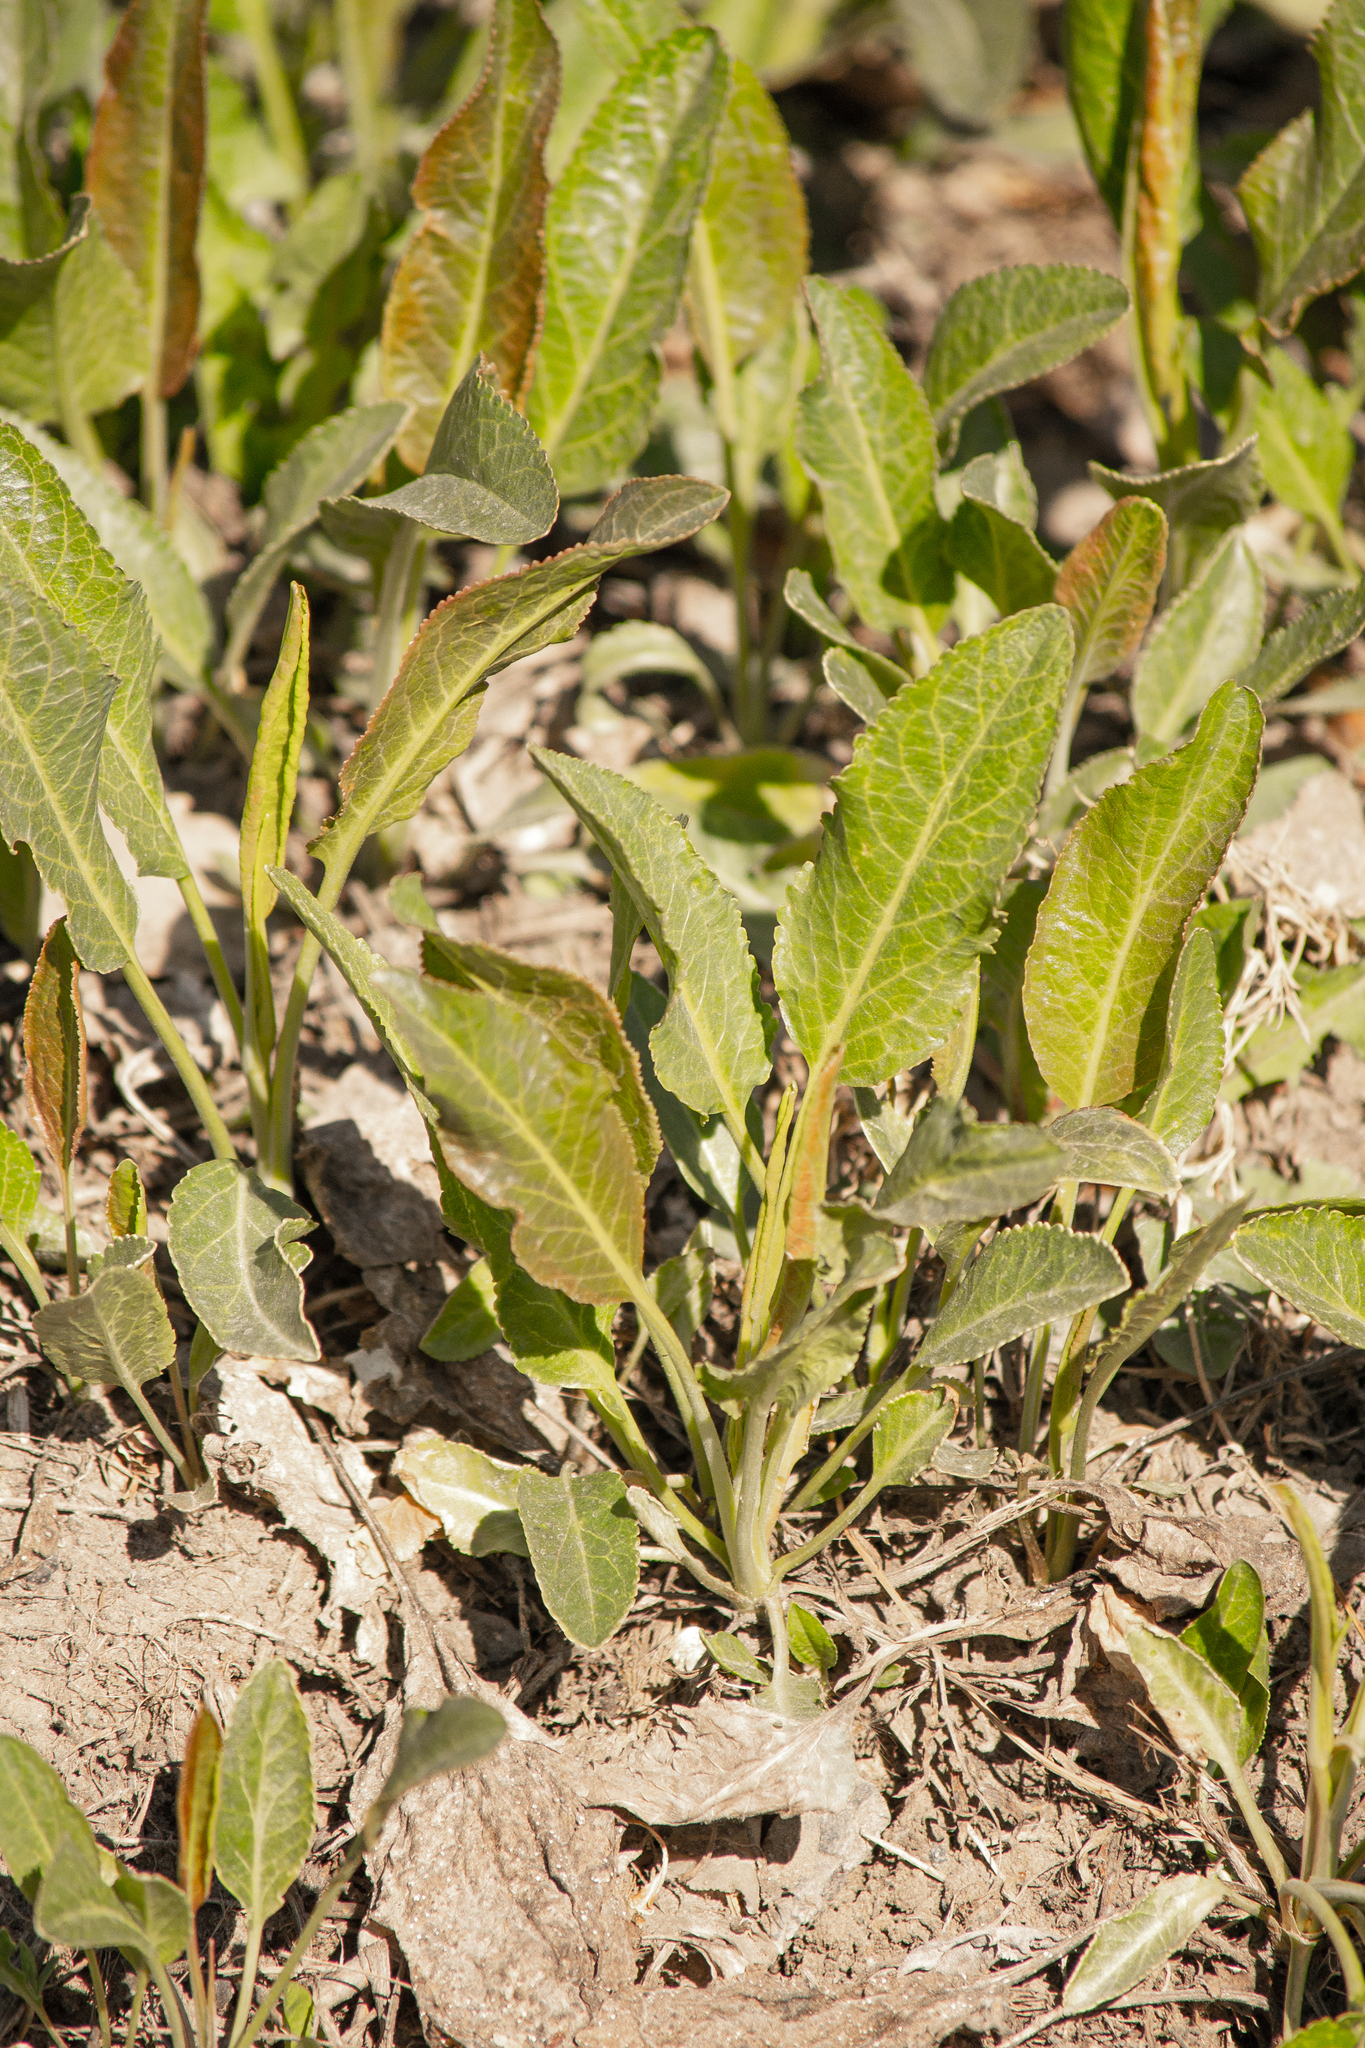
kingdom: Plantae
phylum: Tracheophyta
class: Magnoliopsida
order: Brassicales
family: Brassicaceae
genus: Lepidium
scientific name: Lepidium latifolium
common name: Dittander
